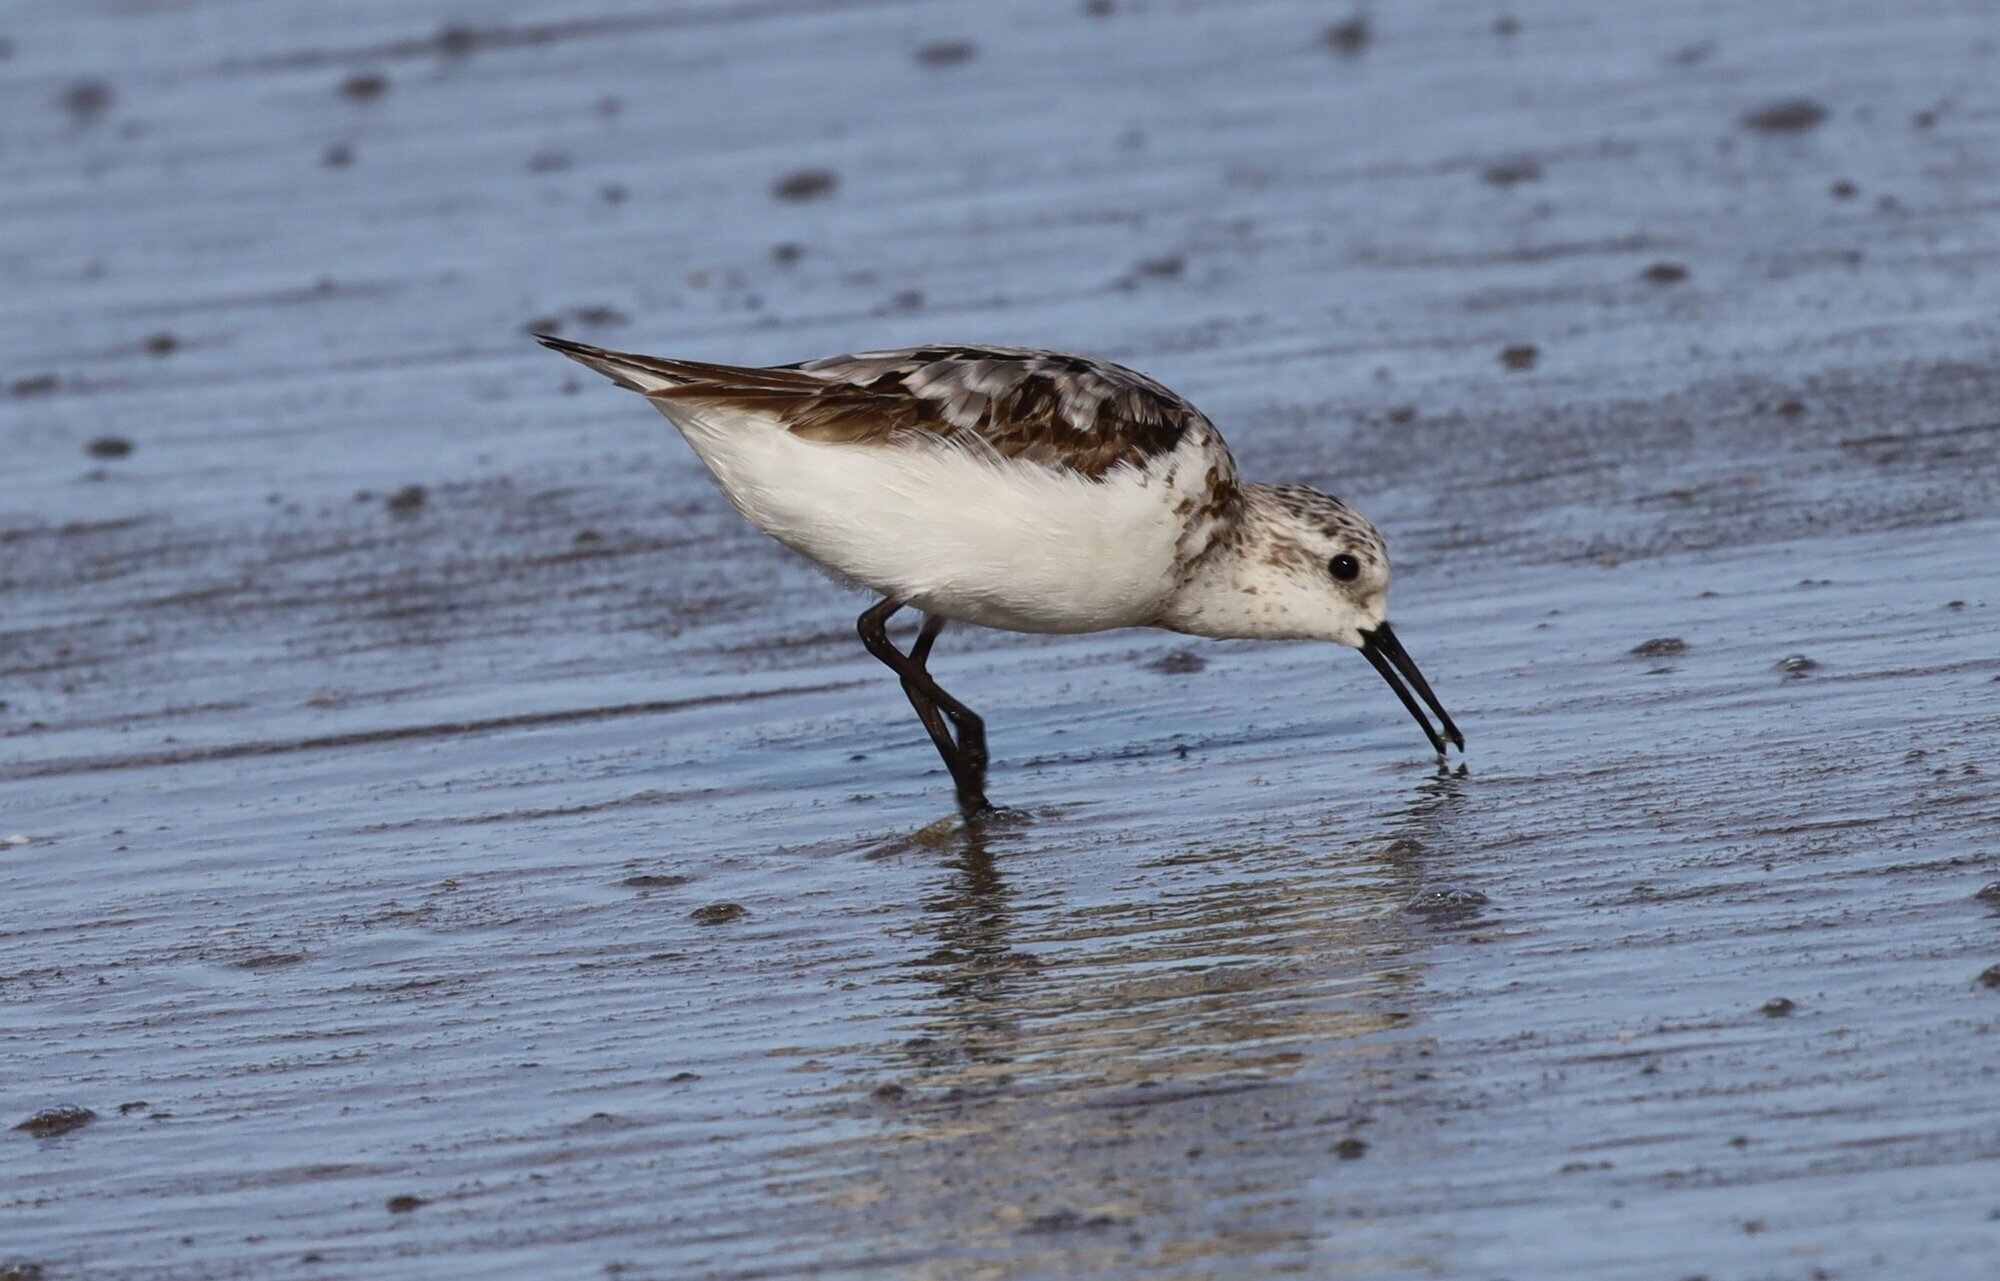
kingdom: Animalia
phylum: Chordata
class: Aves
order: Charadriiformes
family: Scolopacidae
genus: Calidris
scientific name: Calidris alba
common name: Sanderling
